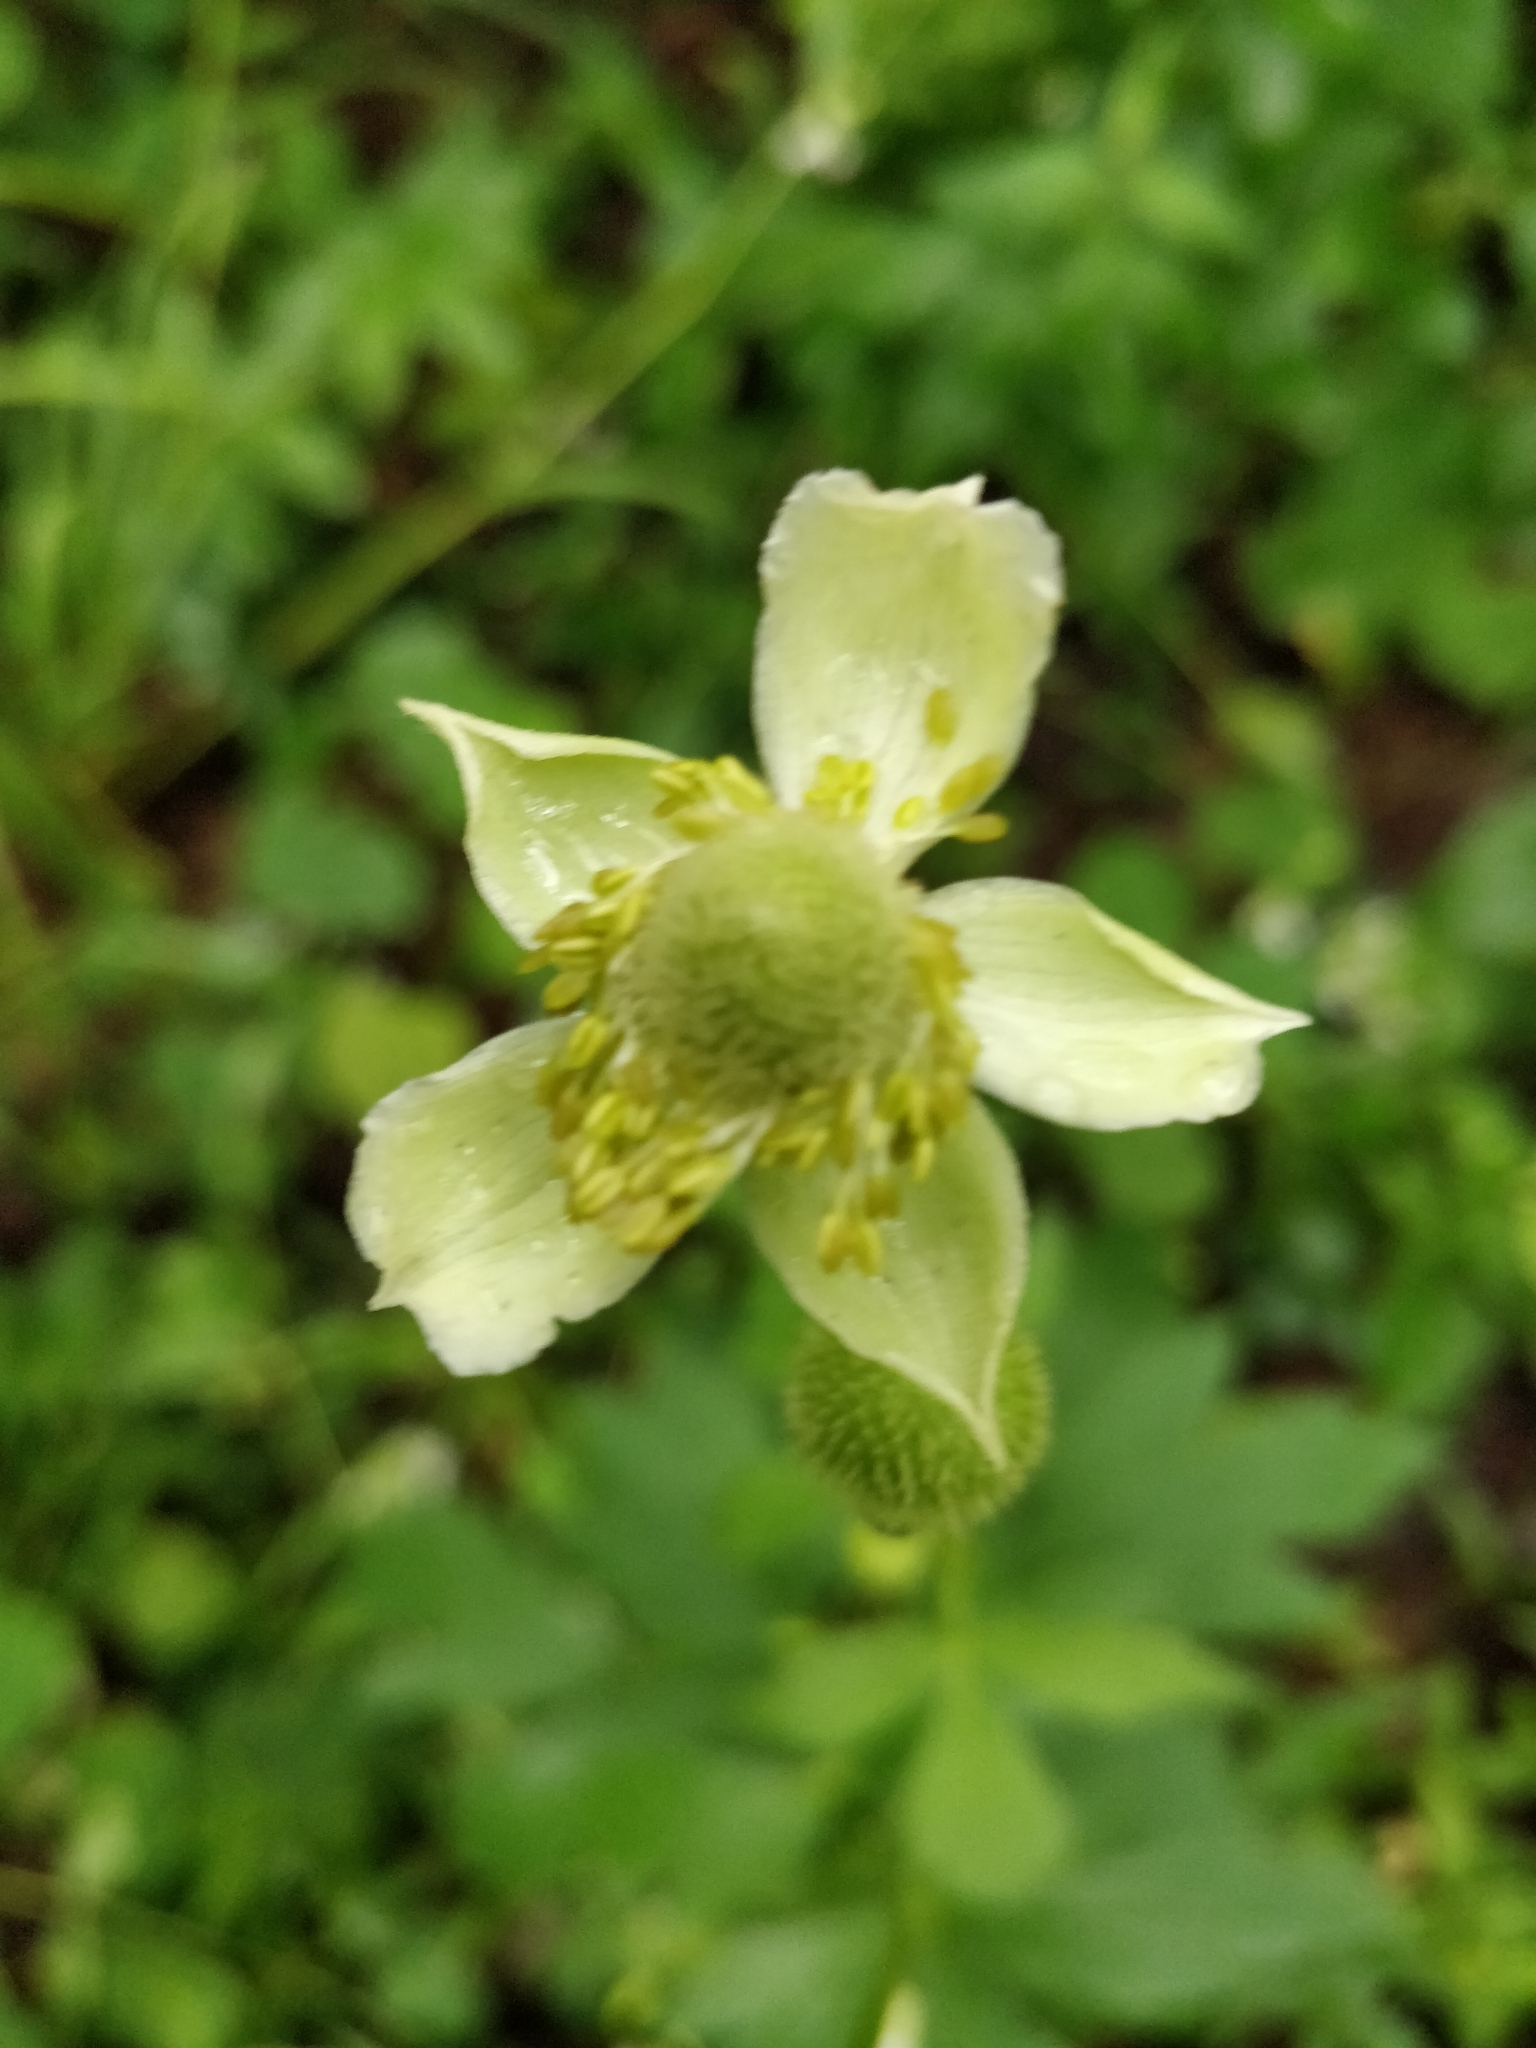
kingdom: Plantae
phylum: Tracheophyta
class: Magnoliopsida
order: Ranunculales
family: Ranunculaceae
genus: Anemone
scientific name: Anemone virginiana
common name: Tall anemone
